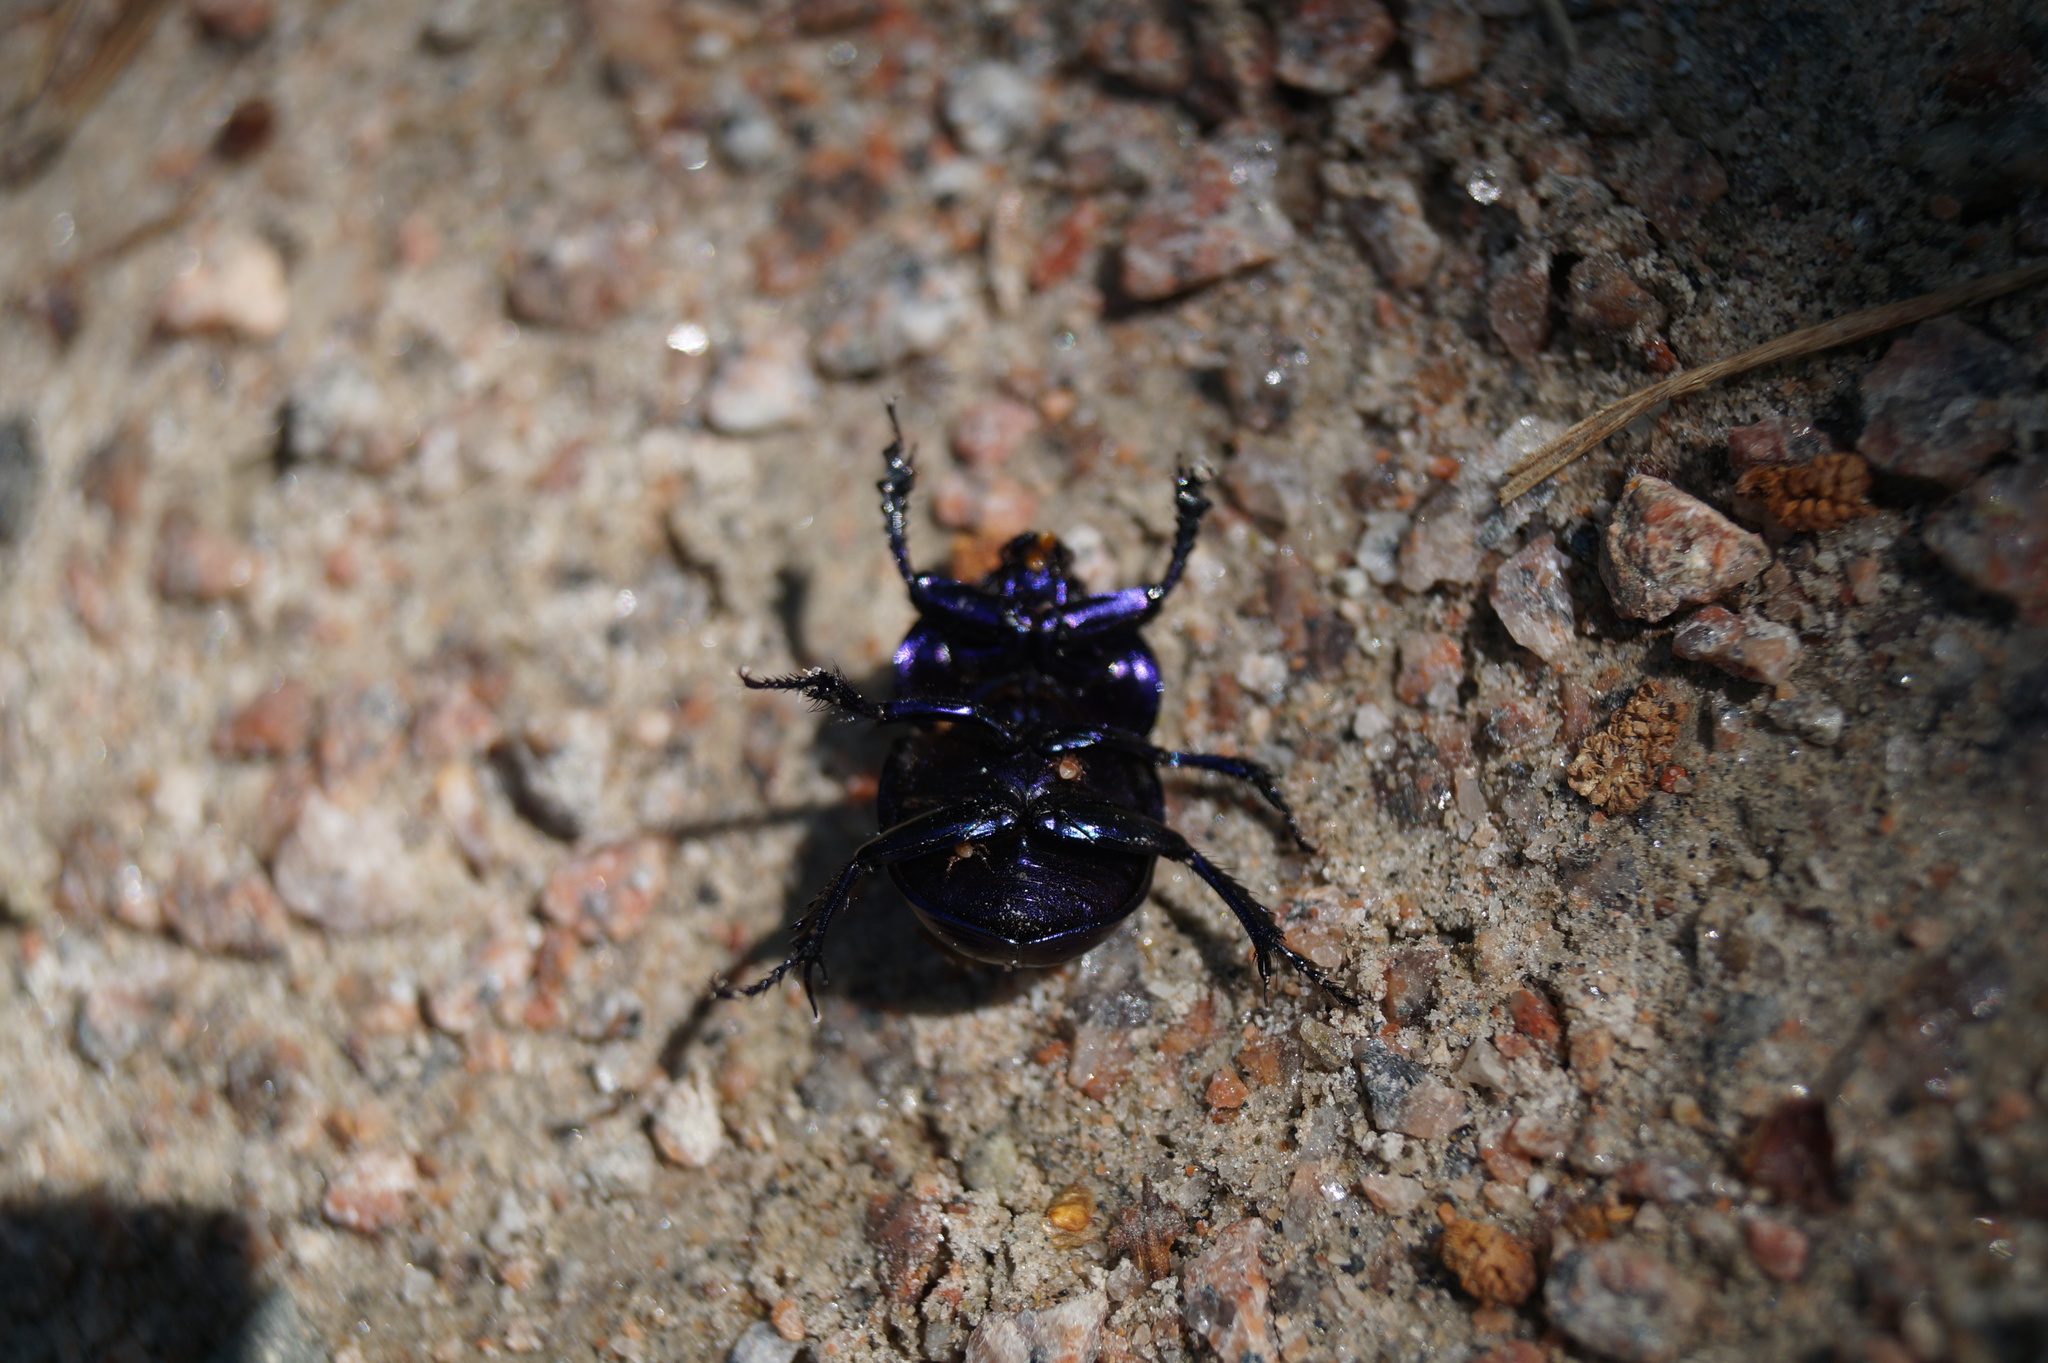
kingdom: Animalia
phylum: Arthropoda
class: Insecta
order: Coleoptera
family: Geotrupidae
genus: Trypocopris
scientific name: Trypocopris vernalis
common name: Spring dumbledor
